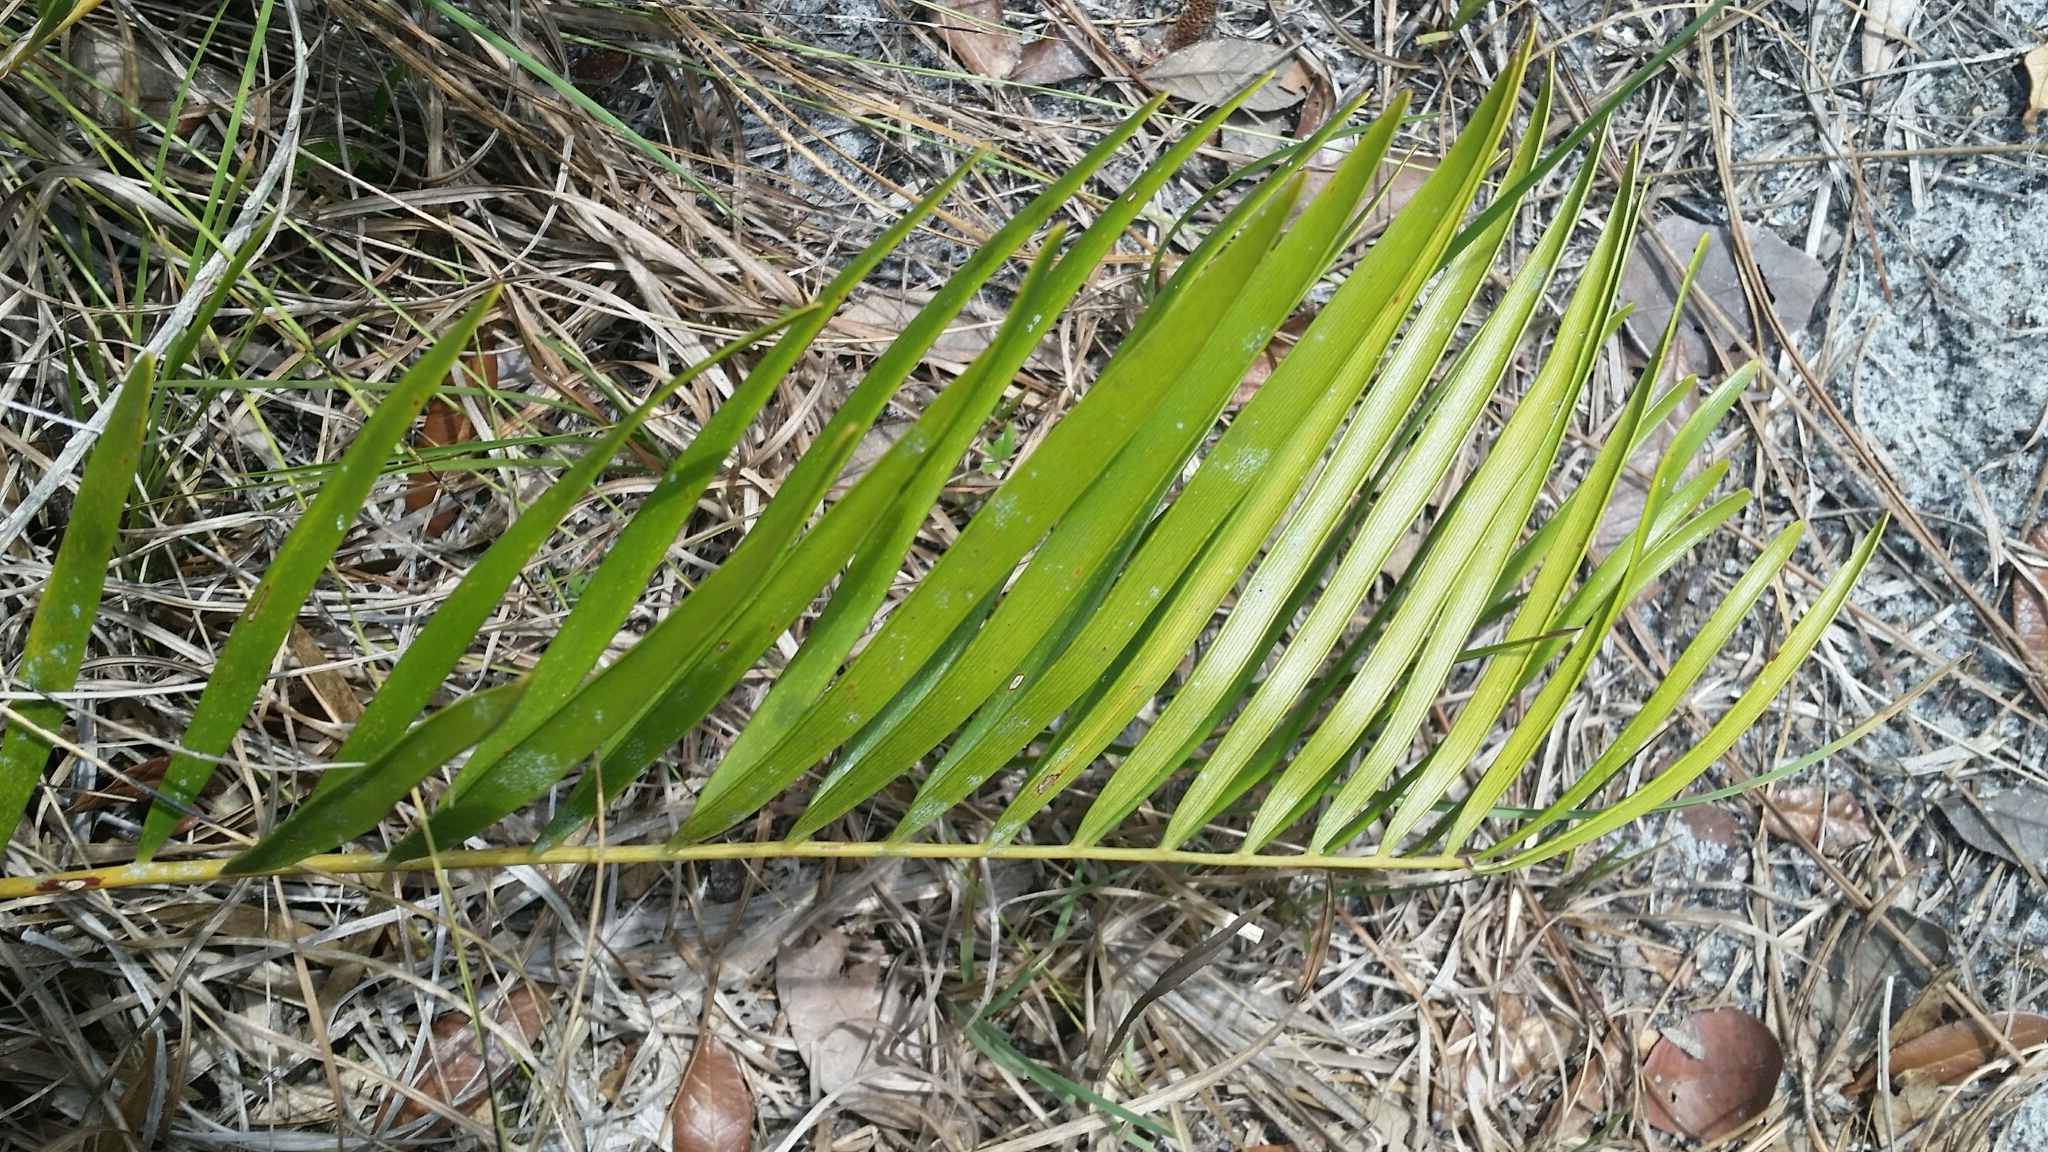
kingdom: Plantae
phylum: Tracheophyta
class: Cycadopsida
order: Cycadales
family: Zamiaceae
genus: Zamia
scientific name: Zamia integrifolia
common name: Florida arrowroot
